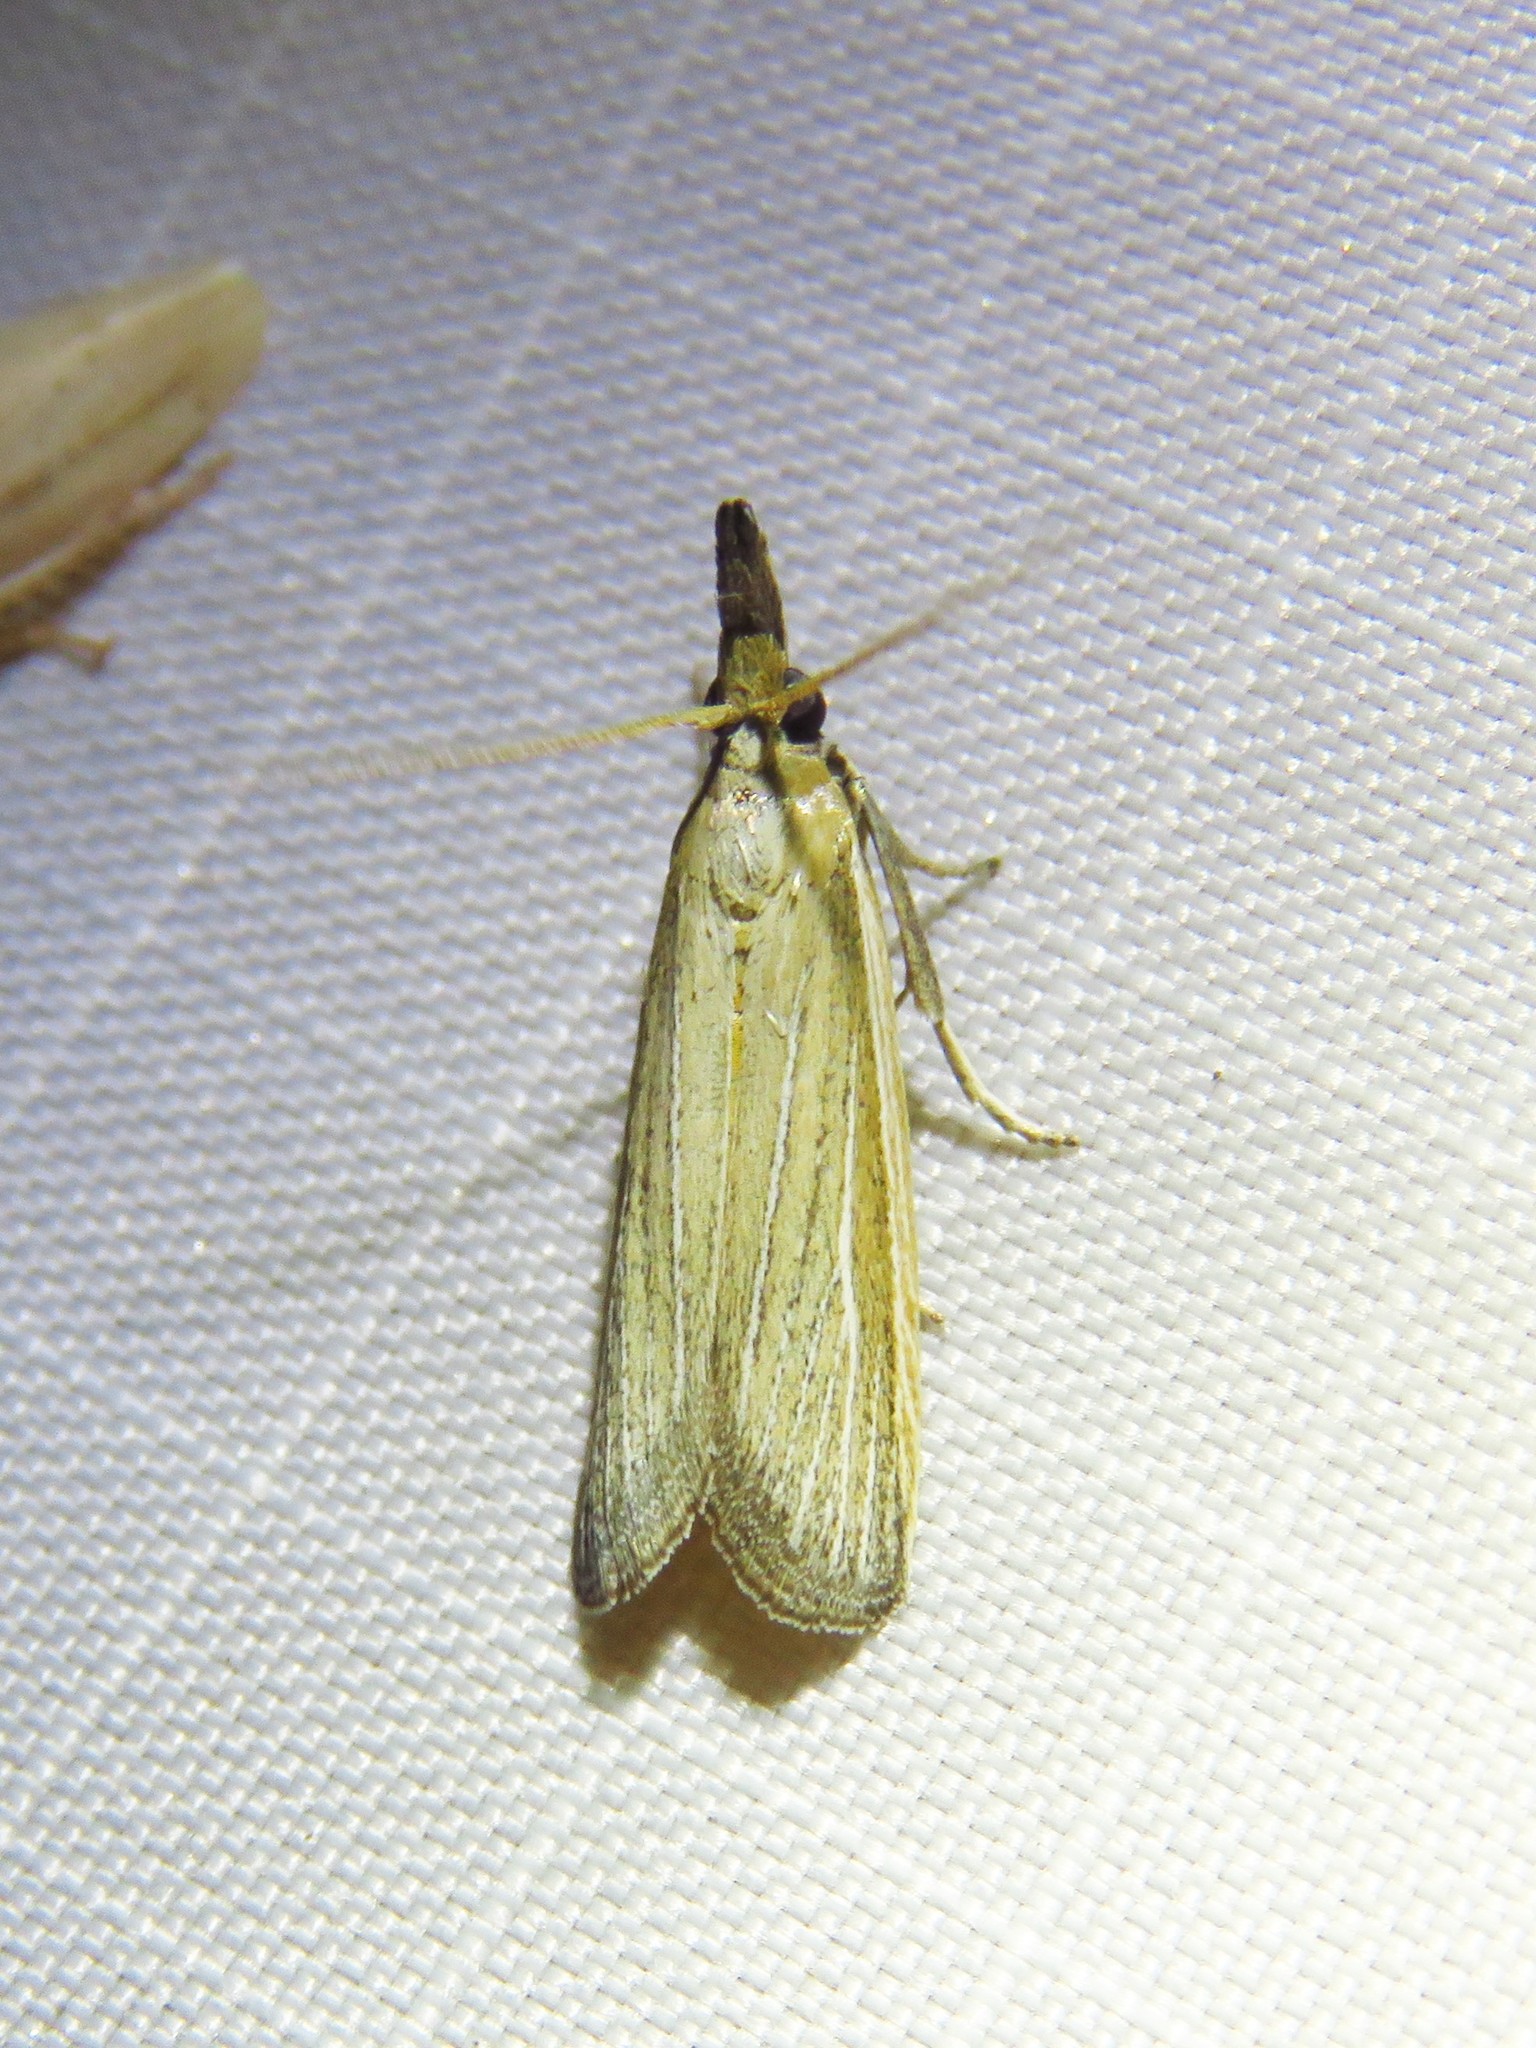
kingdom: Animalia
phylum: Arthropoda
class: Insecta
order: Lepidoptera
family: Pyralidae
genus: Peoria
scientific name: Peoria tetradella
